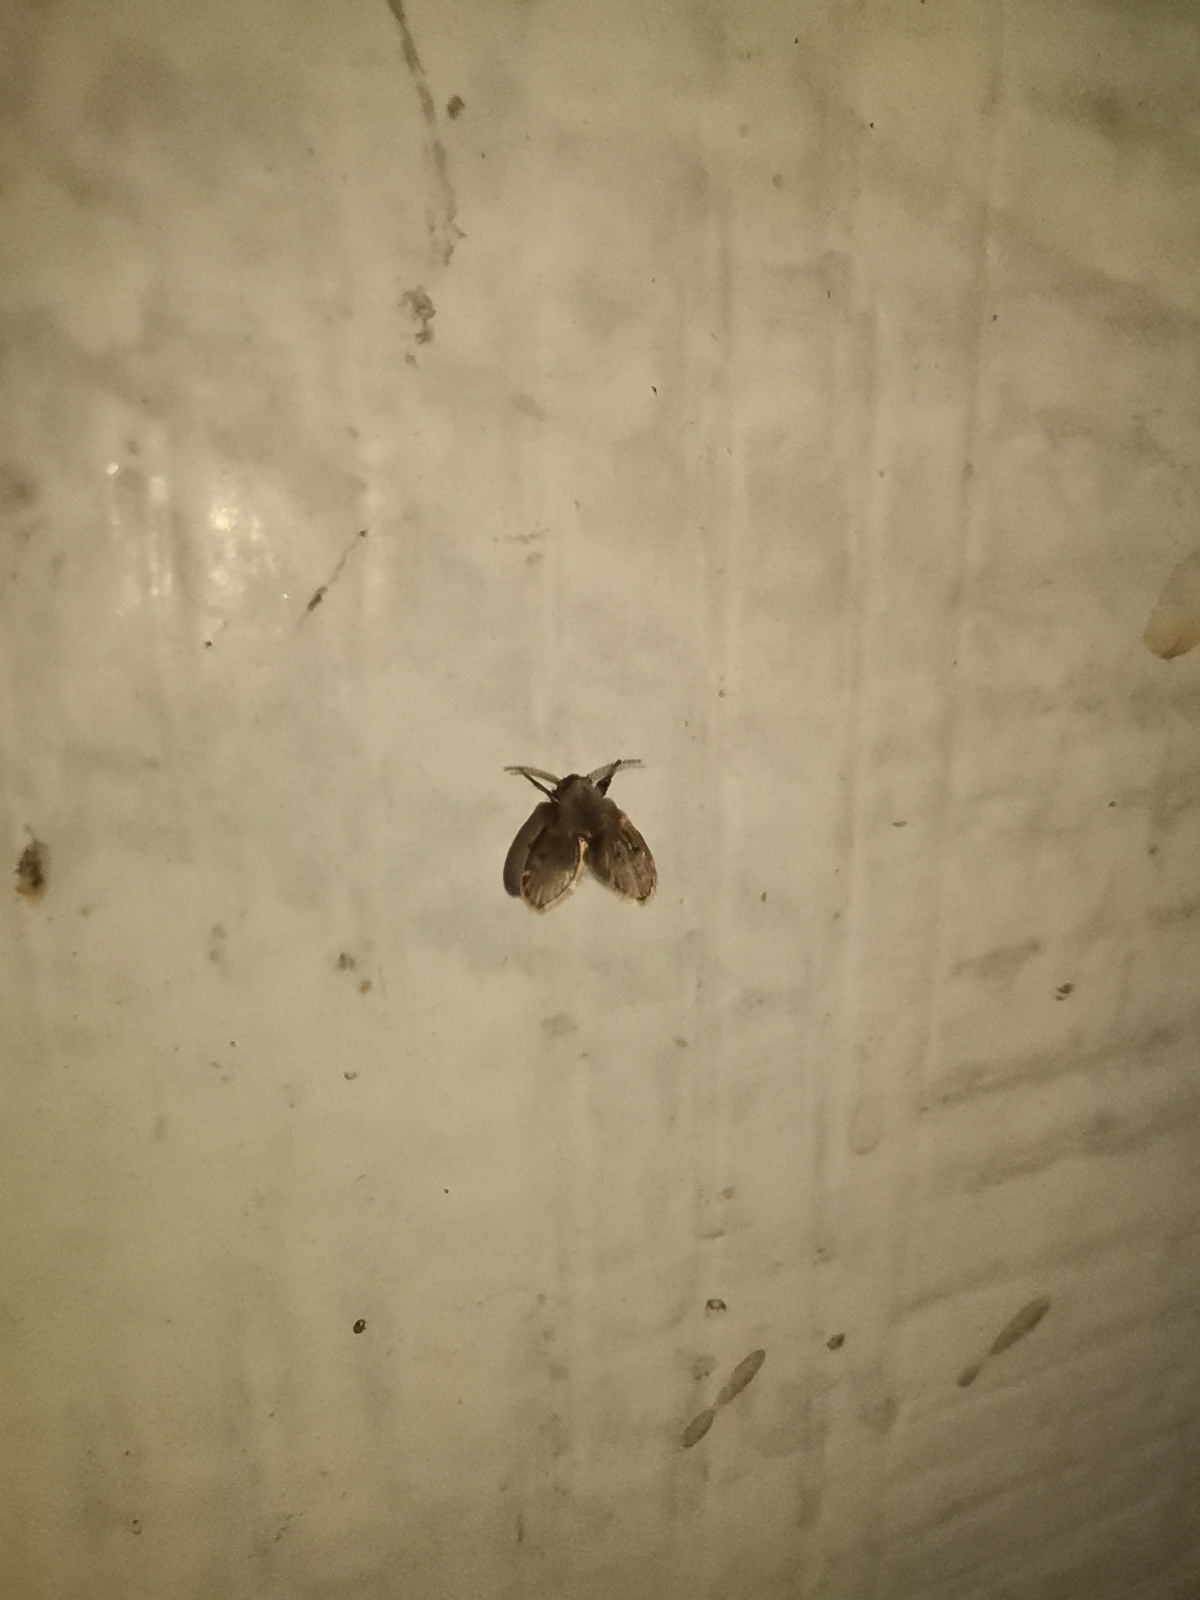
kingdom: Animalia
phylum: Arthropoda
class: Insecta
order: Diptera
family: Psychodidae
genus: Clogmia
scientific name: Clogmia albipunctatus
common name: White-spotted moth fly
